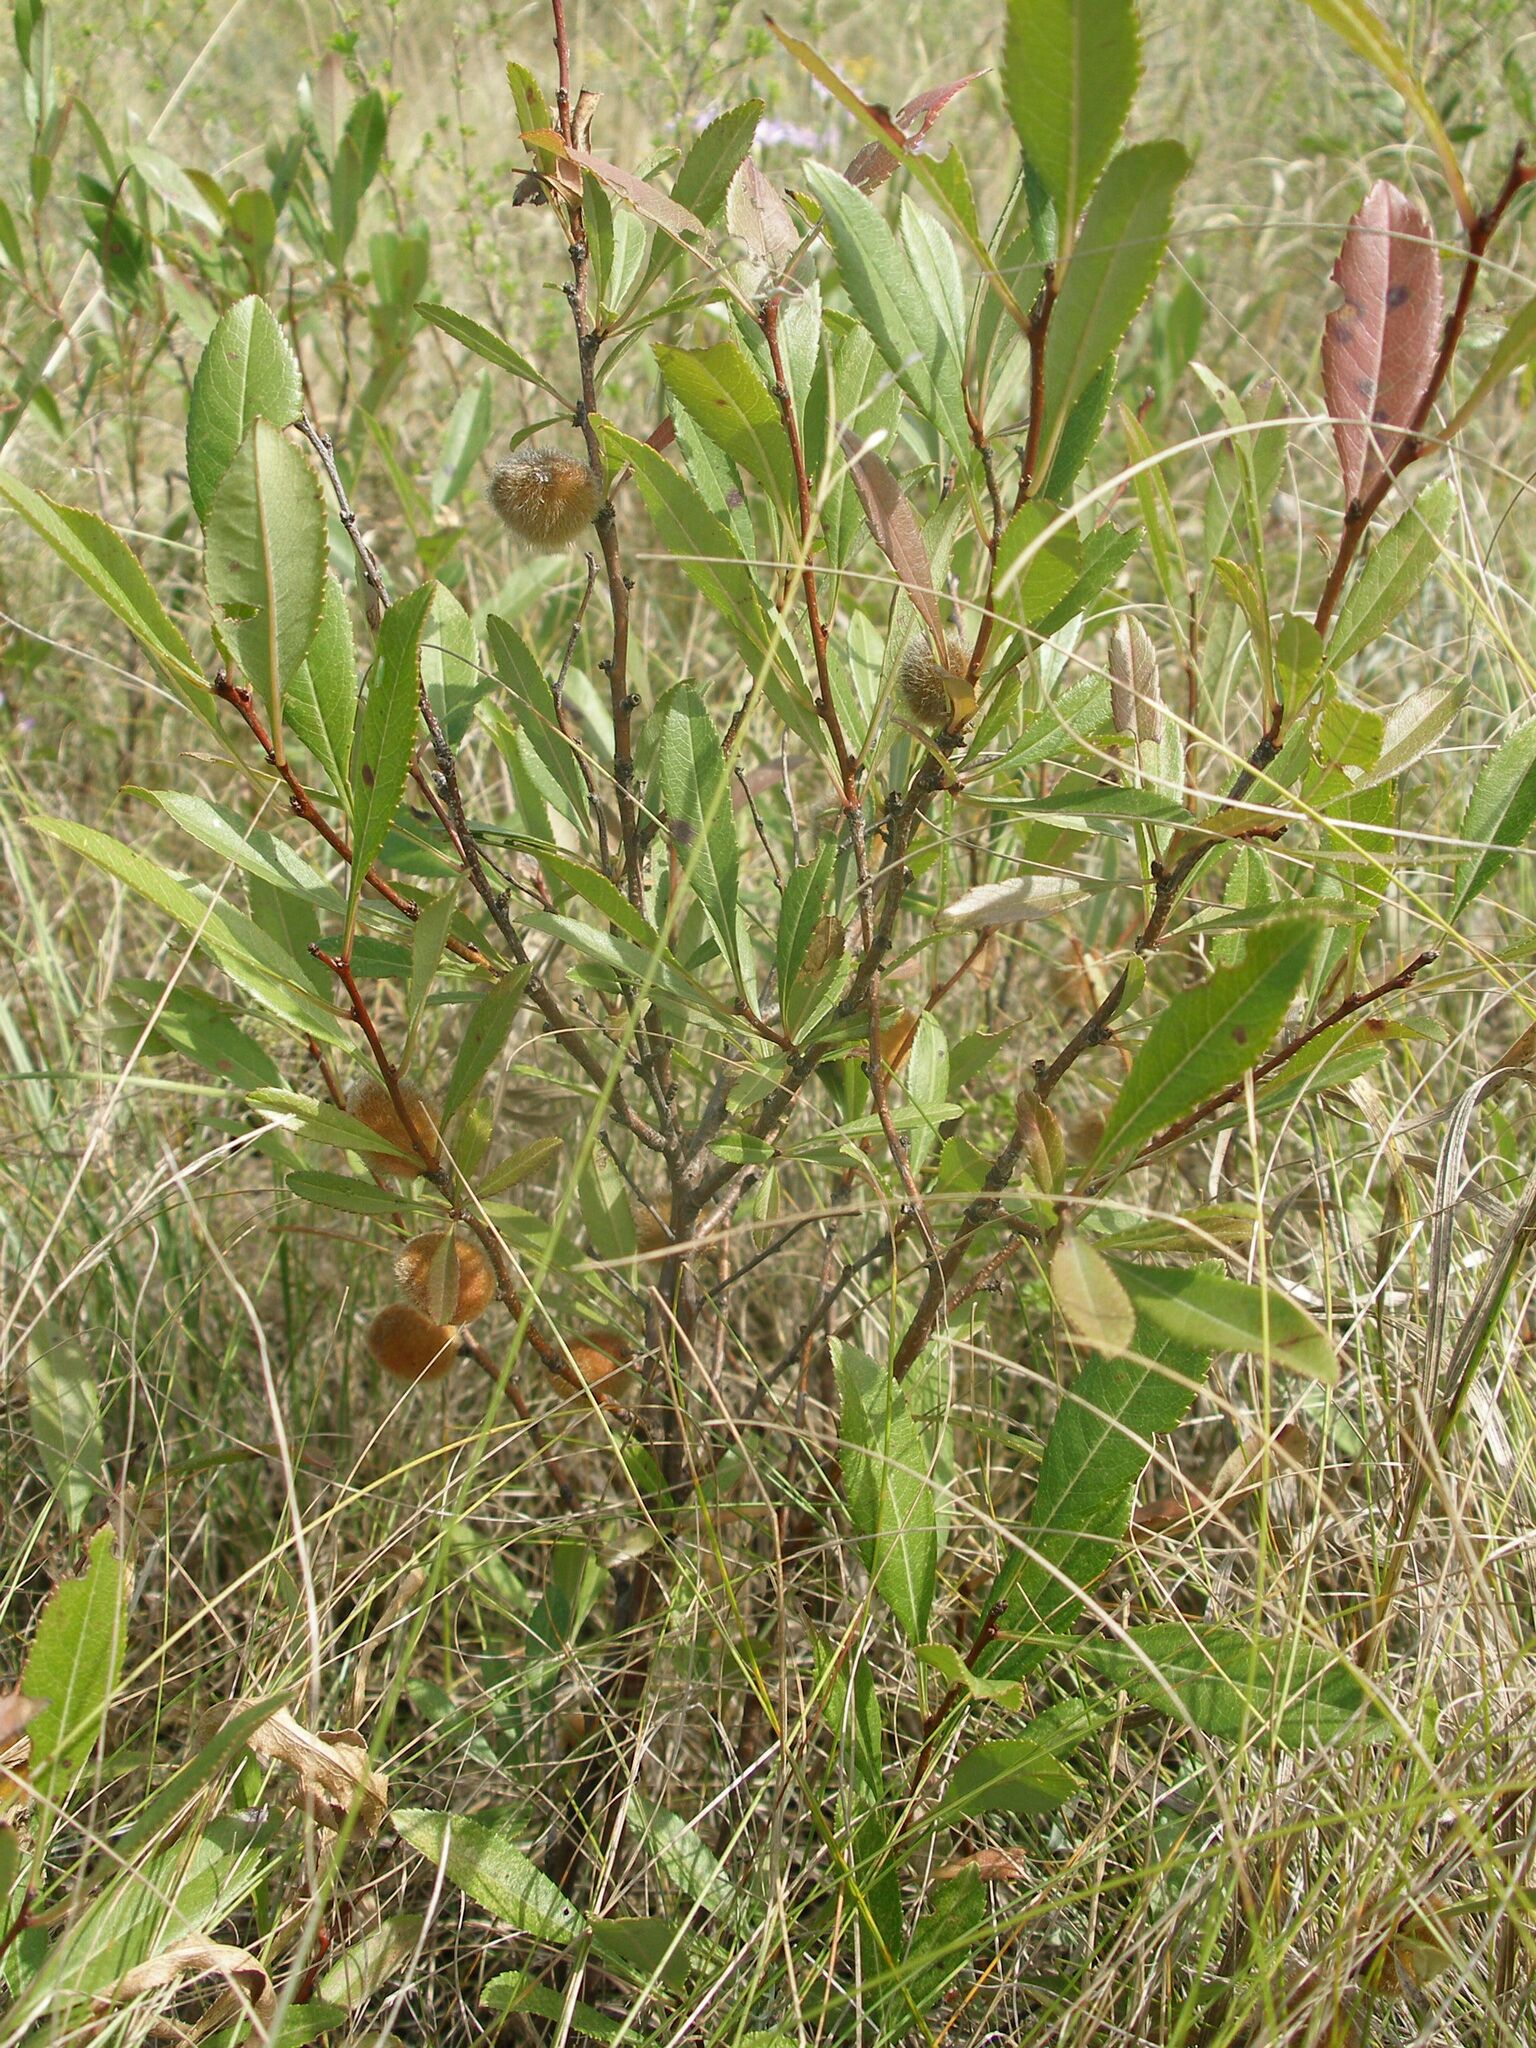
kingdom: Plantae
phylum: Tracheophyta
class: Magnoliopsida
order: Rosales
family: Rosaceae
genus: Prunus
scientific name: Prunus tenella
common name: Dwarf russian almond
